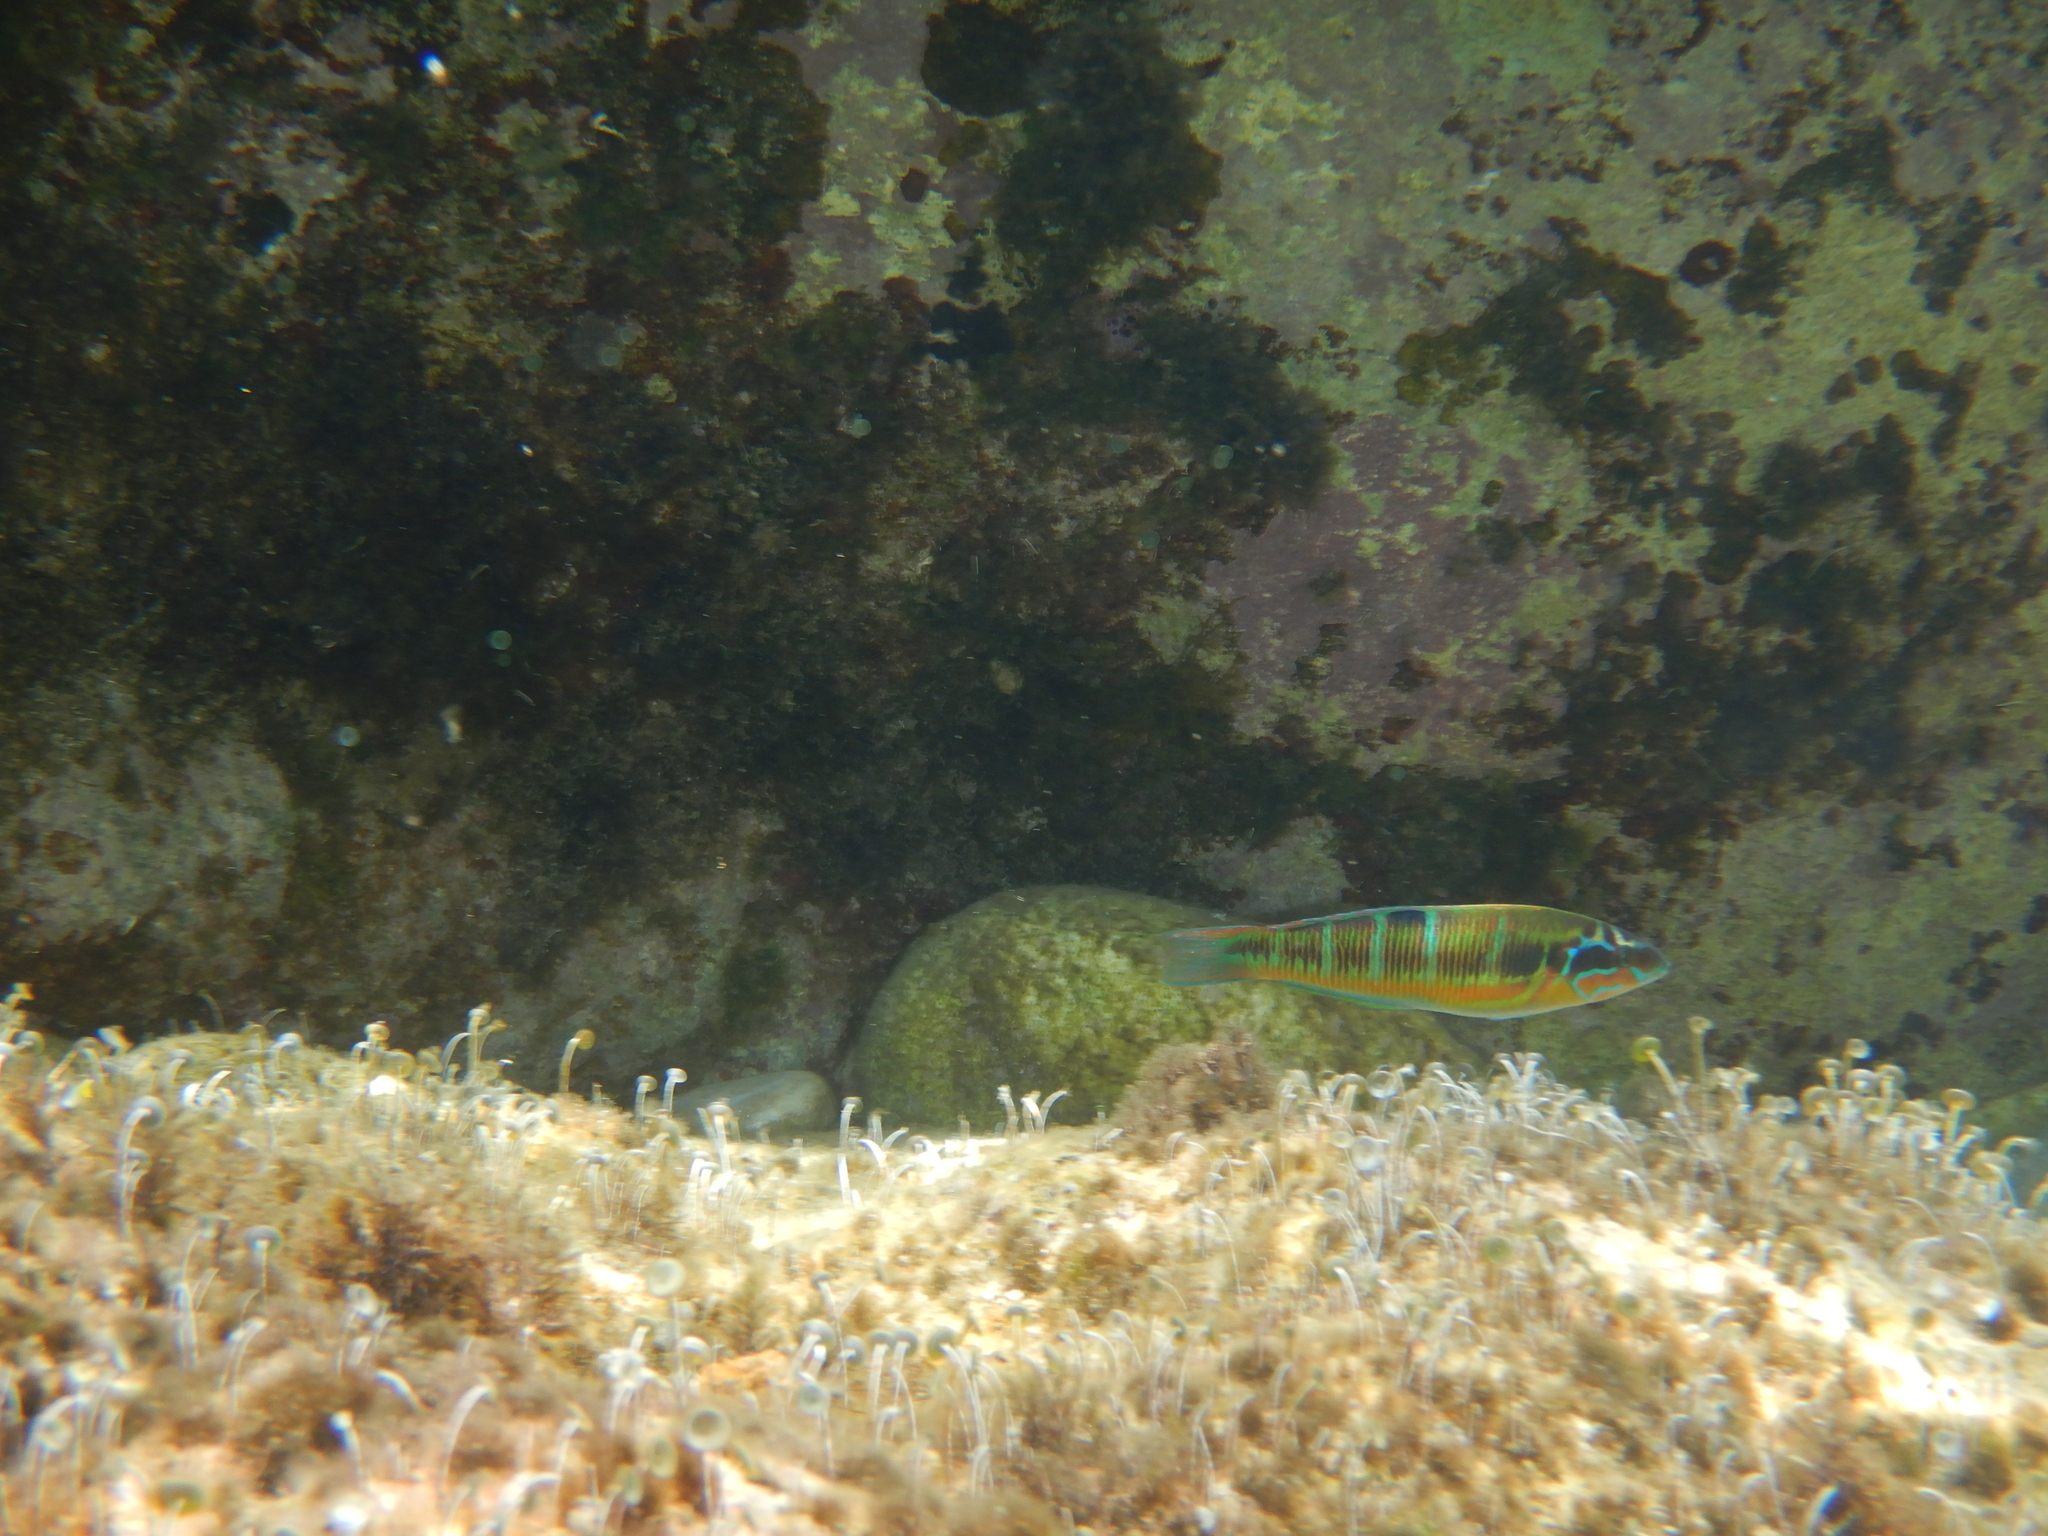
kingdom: Animalia
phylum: Chordata
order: Perciformes
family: Labridae
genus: Thalassoma
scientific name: Thalassoma pavo
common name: Ornate wrasse
